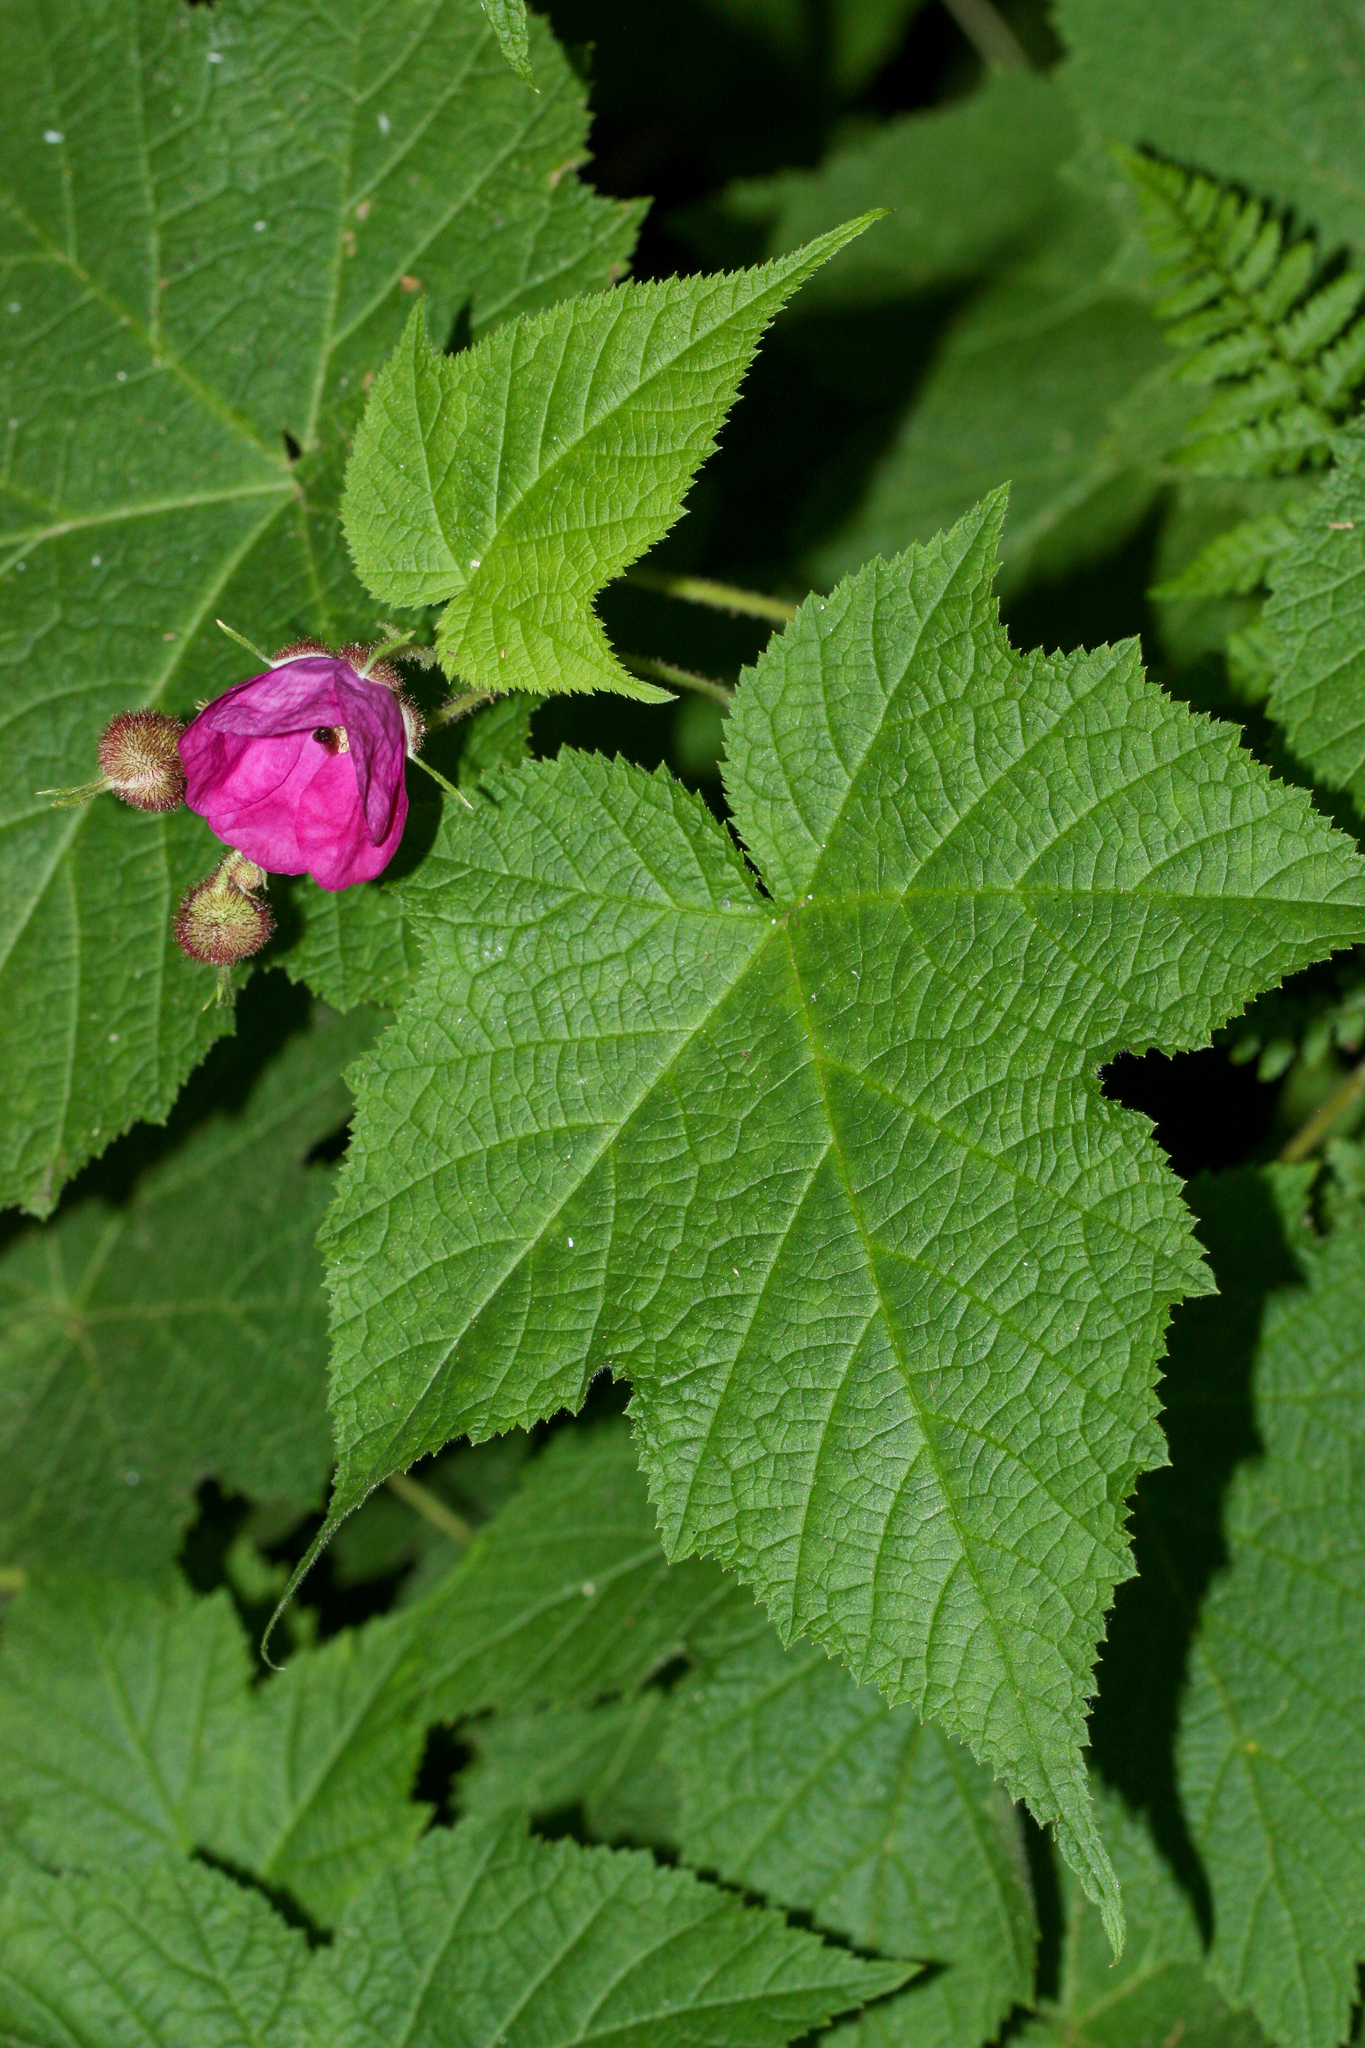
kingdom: Plantae
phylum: Tracheophyta
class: Magnoliopsida
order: Rosales
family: Rosaceae
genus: Rubus
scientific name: Rubus odoratus
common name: Purple-flowered raspberry
